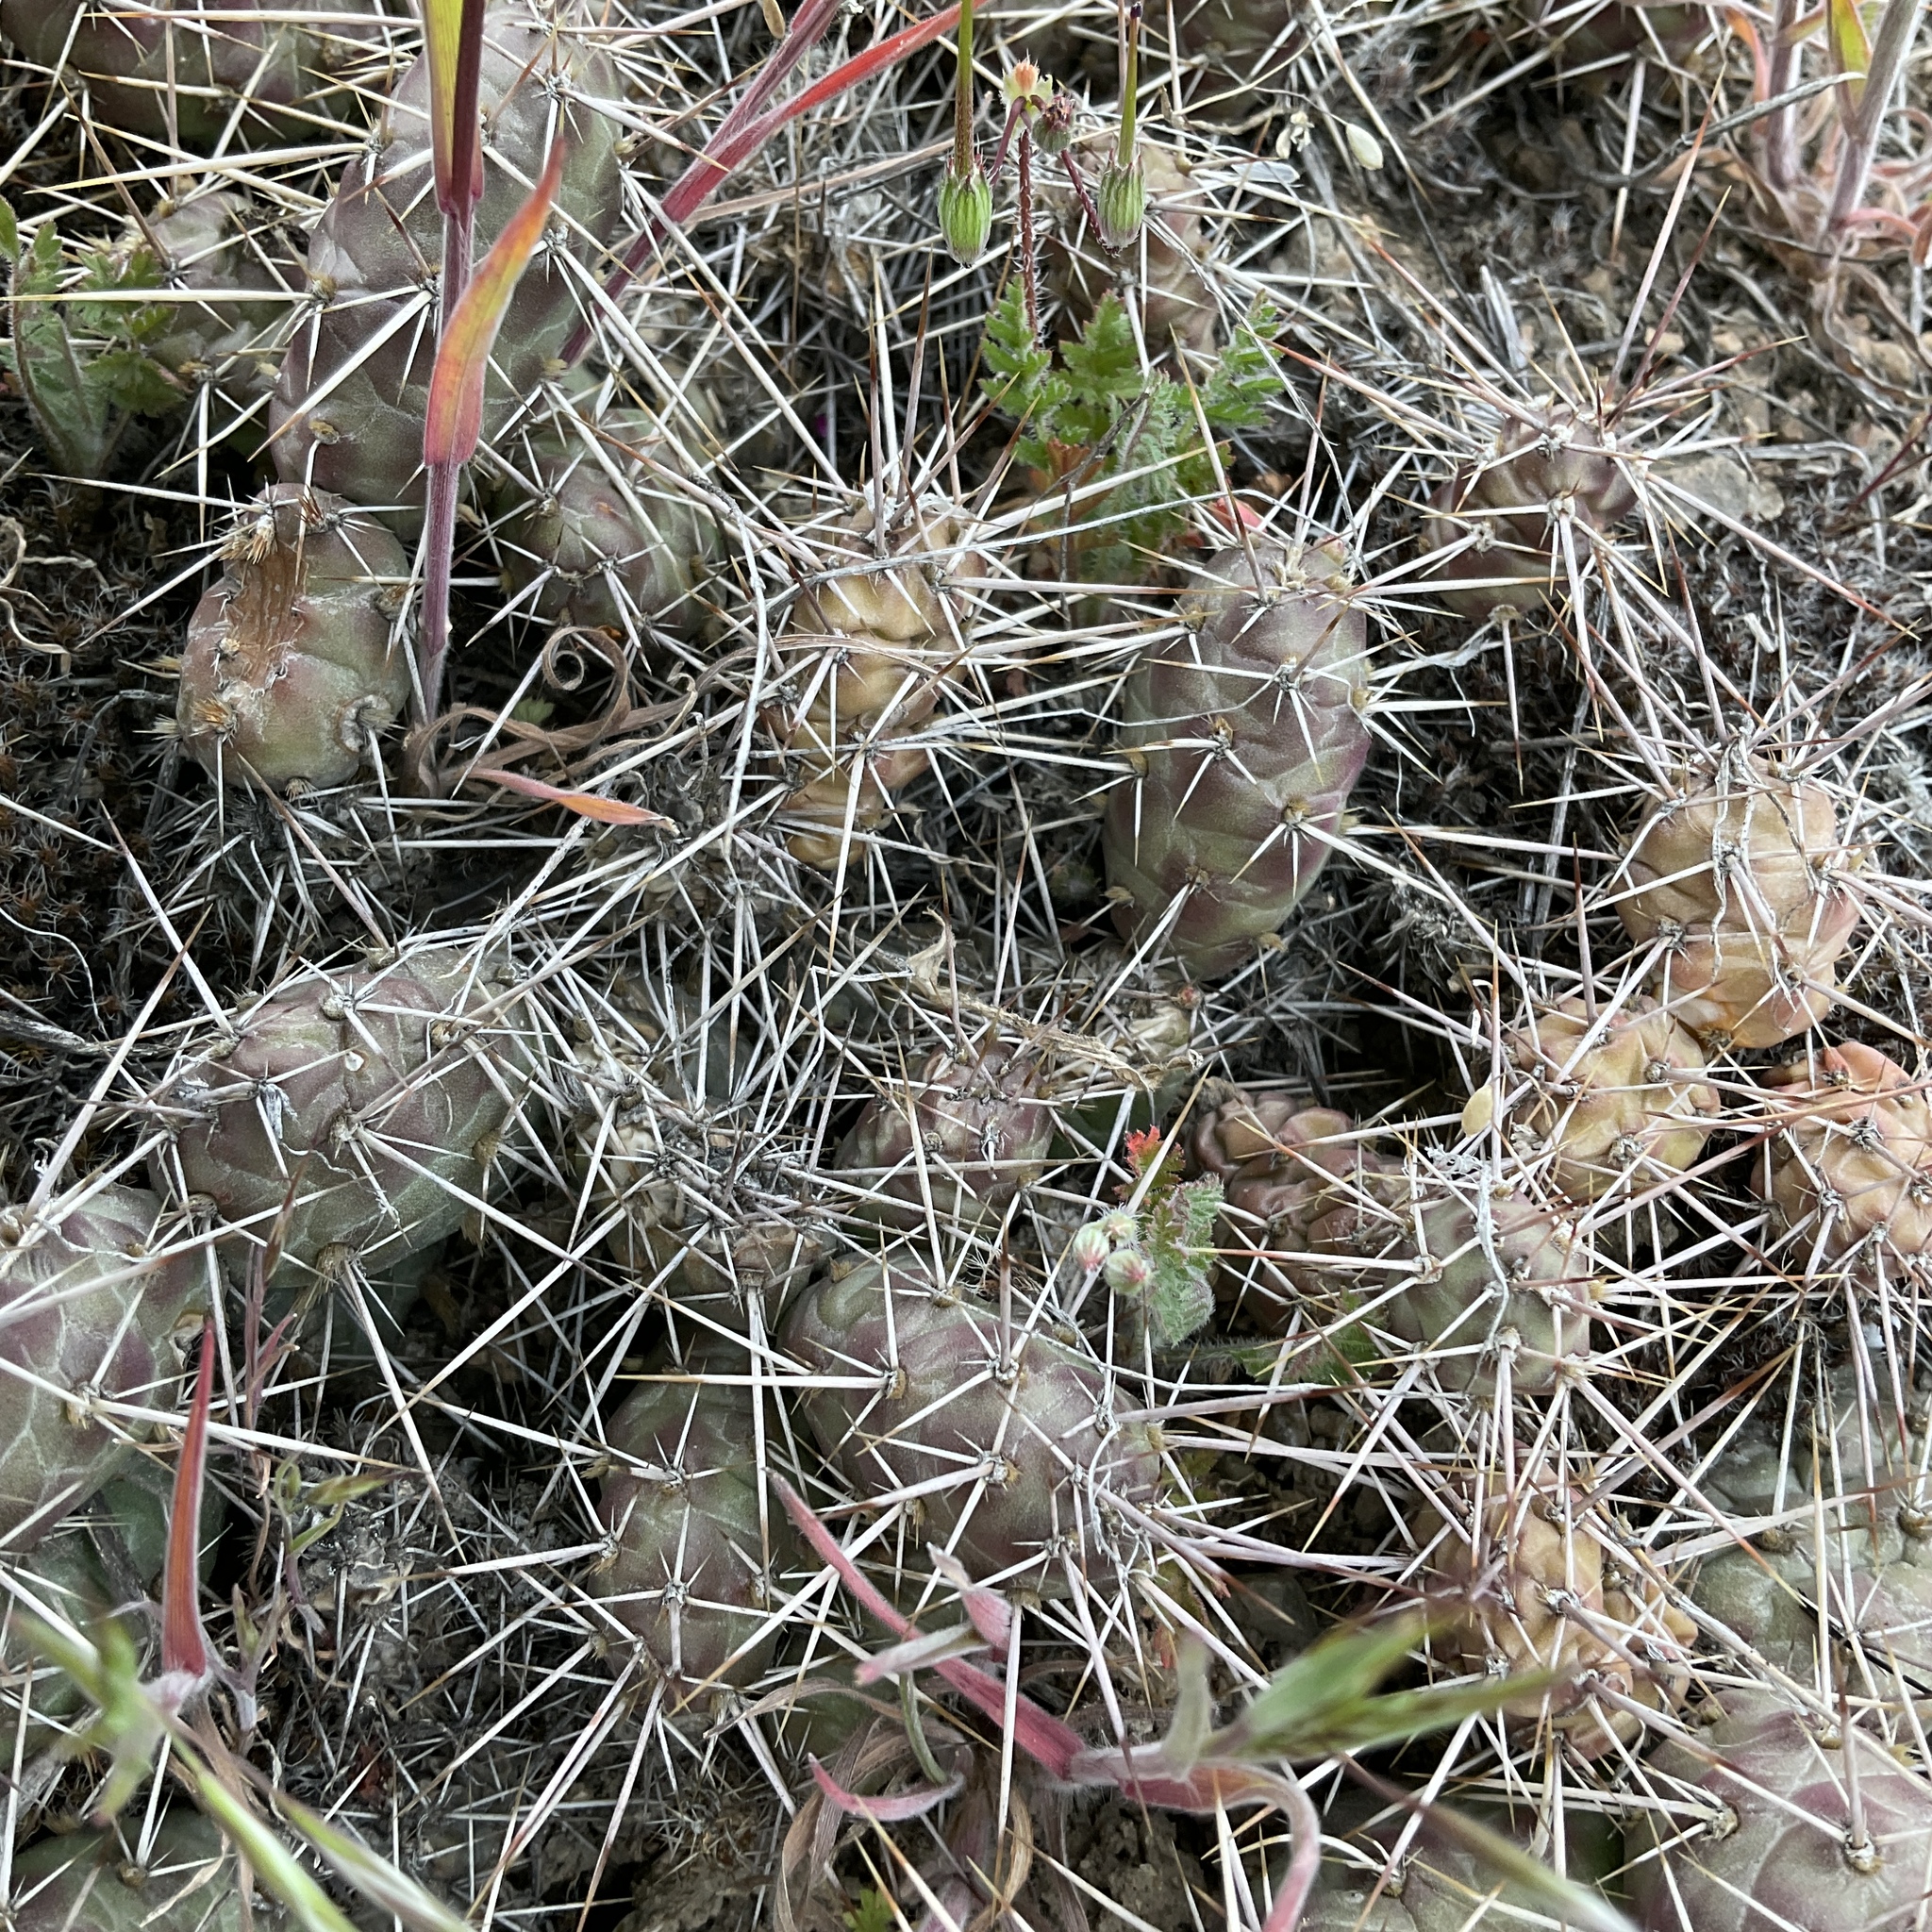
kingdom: Plantae
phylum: Tracheophyta
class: Magnoliopsida
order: Caryophyllales
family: Cactaceae
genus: Opuntia
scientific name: Opuntia fragilis
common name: Brittle cactus
